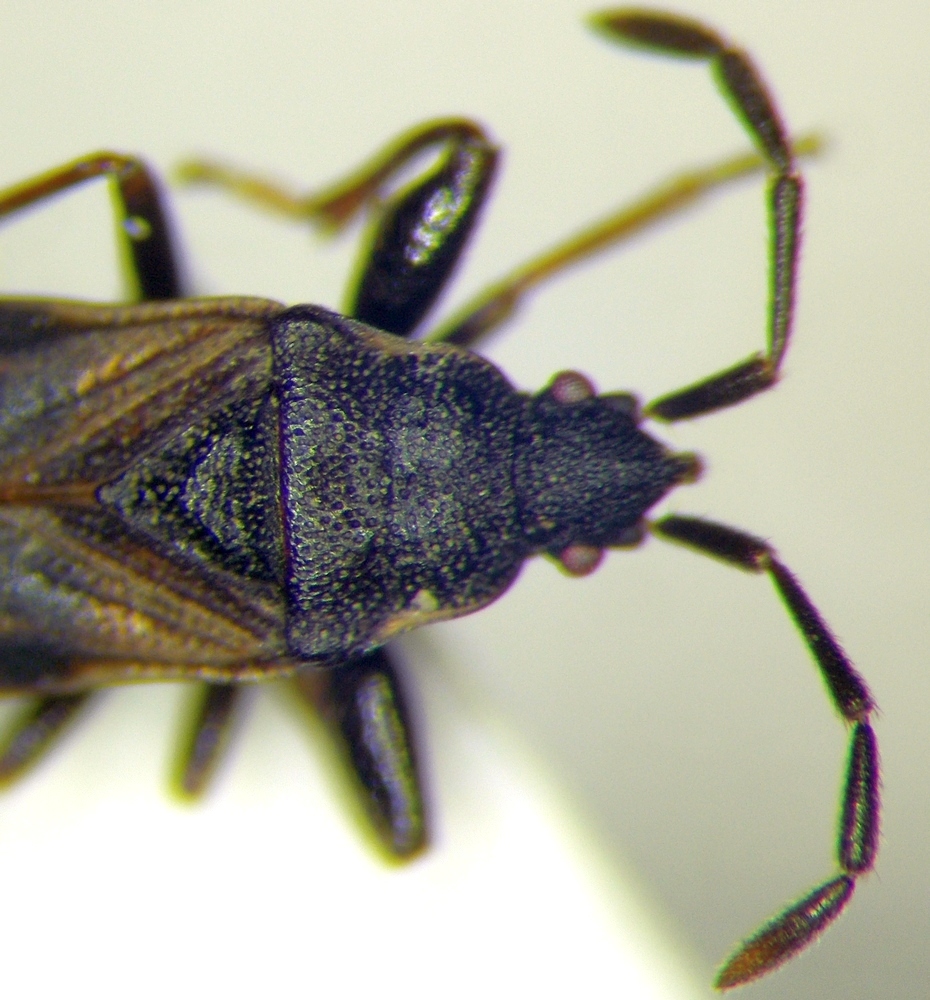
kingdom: Animalia
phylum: Arthropoda
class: Insecta
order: Hemiptera
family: Rhyparochromidae
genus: Taphropeltus
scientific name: Taphropeltus hamulatus
